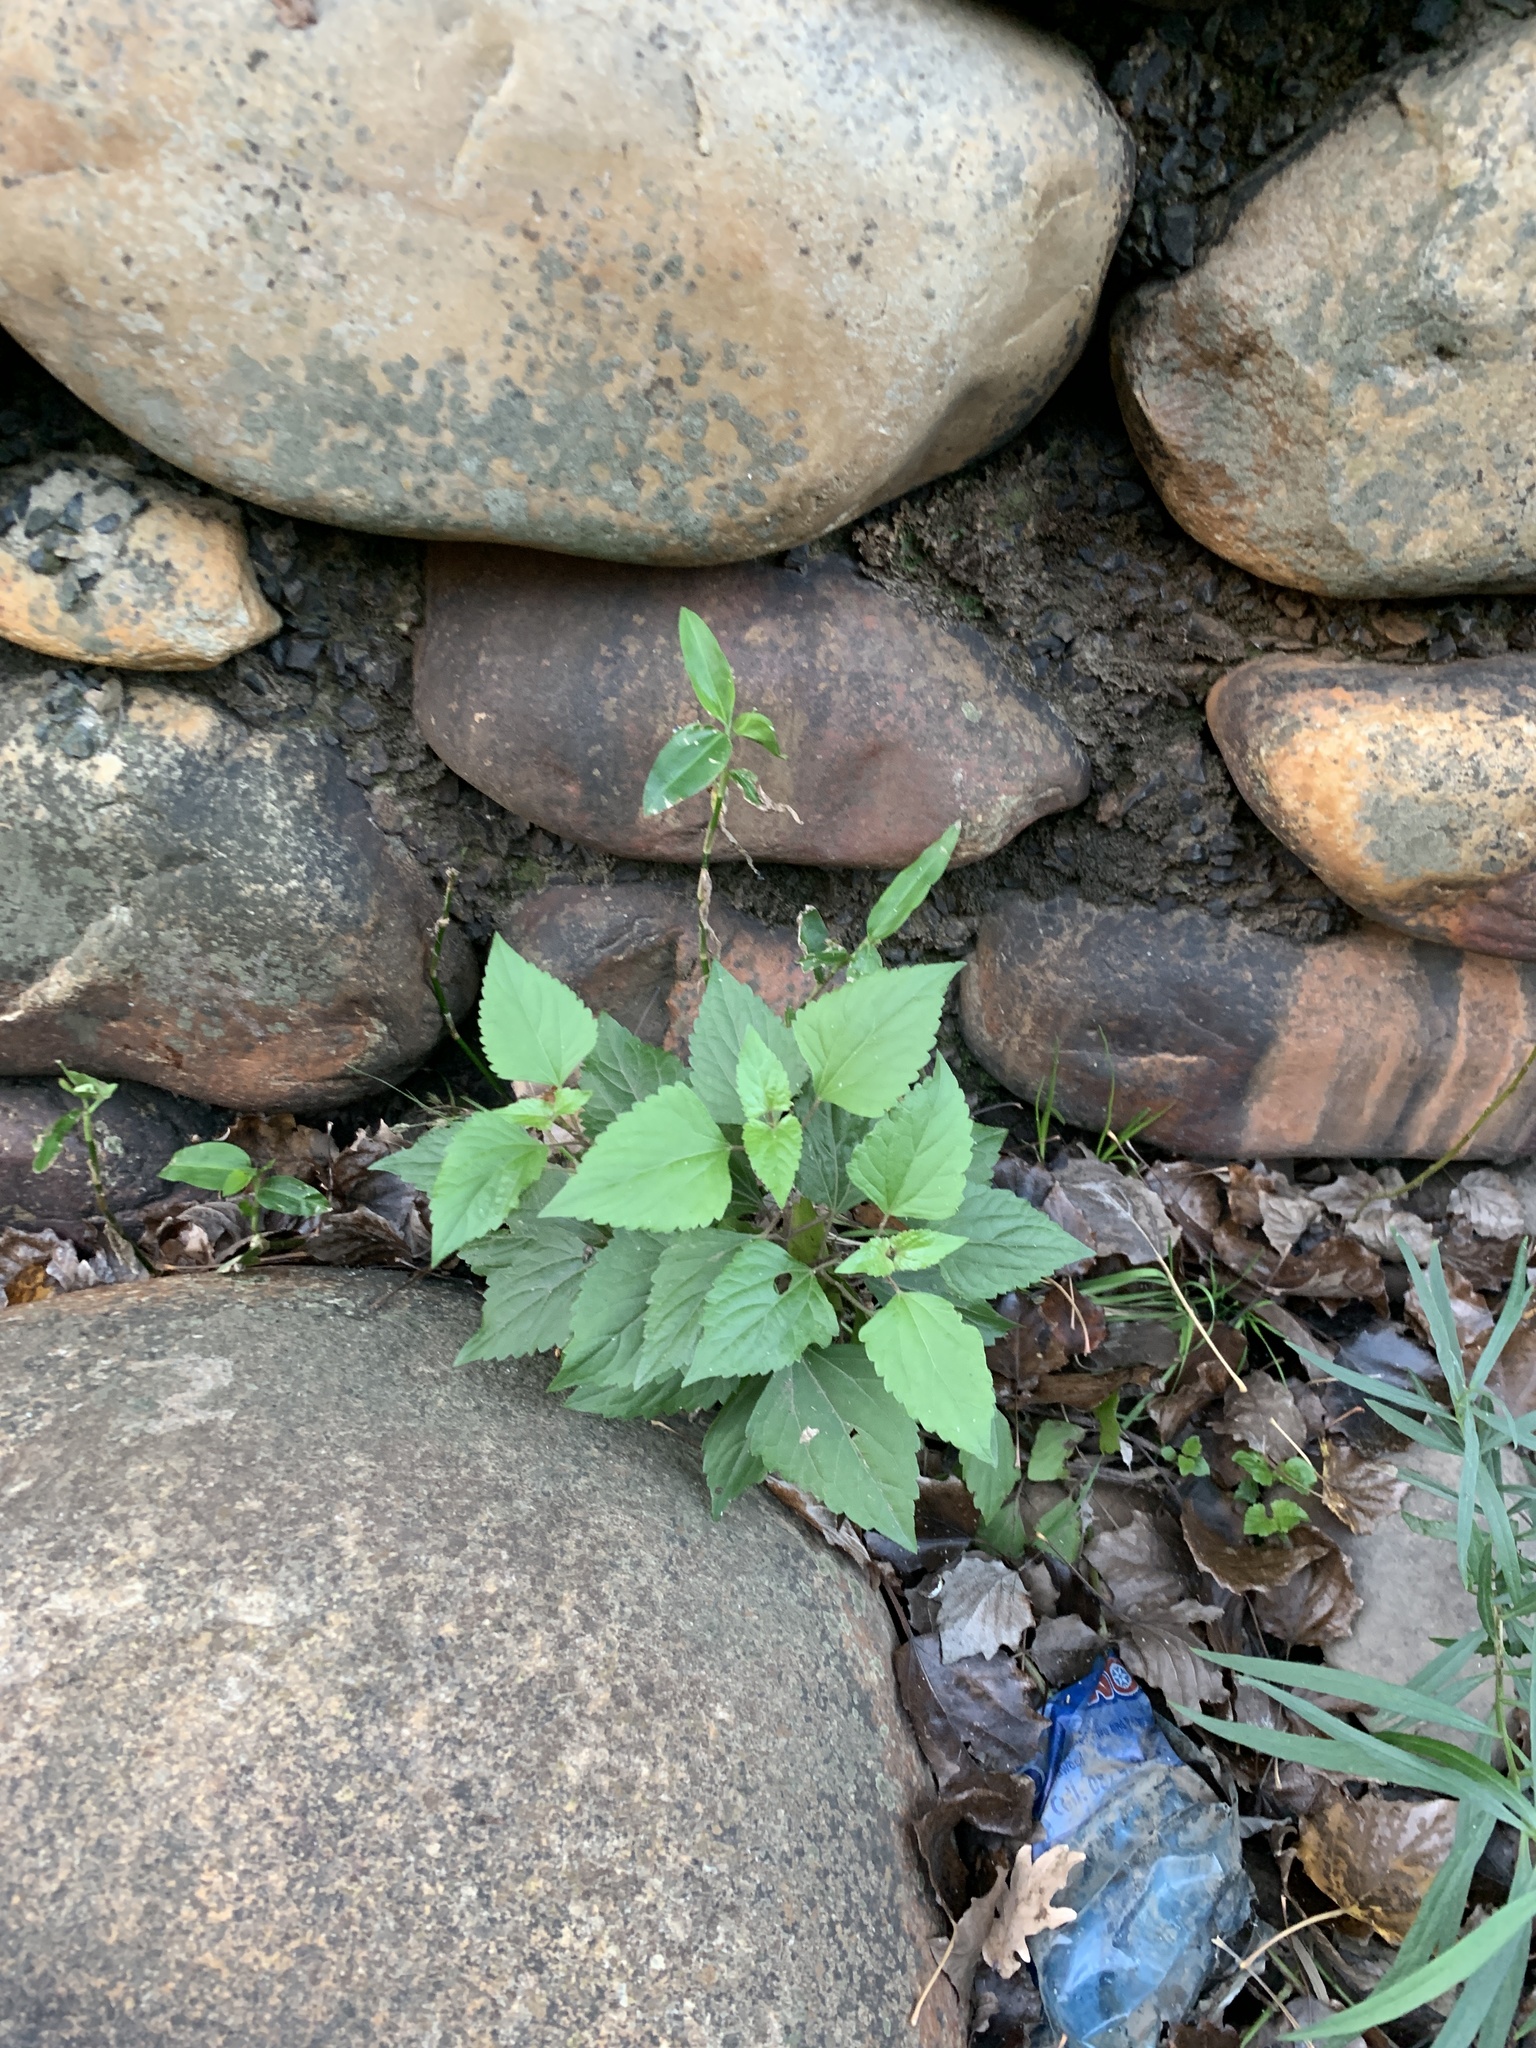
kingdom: Plantae
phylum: Tracheophyta
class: Magnoliopsida
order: Asterales
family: Asteraceae
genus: Ageratina
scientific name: Ageratina adenophora
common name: Sticky snakeroot
